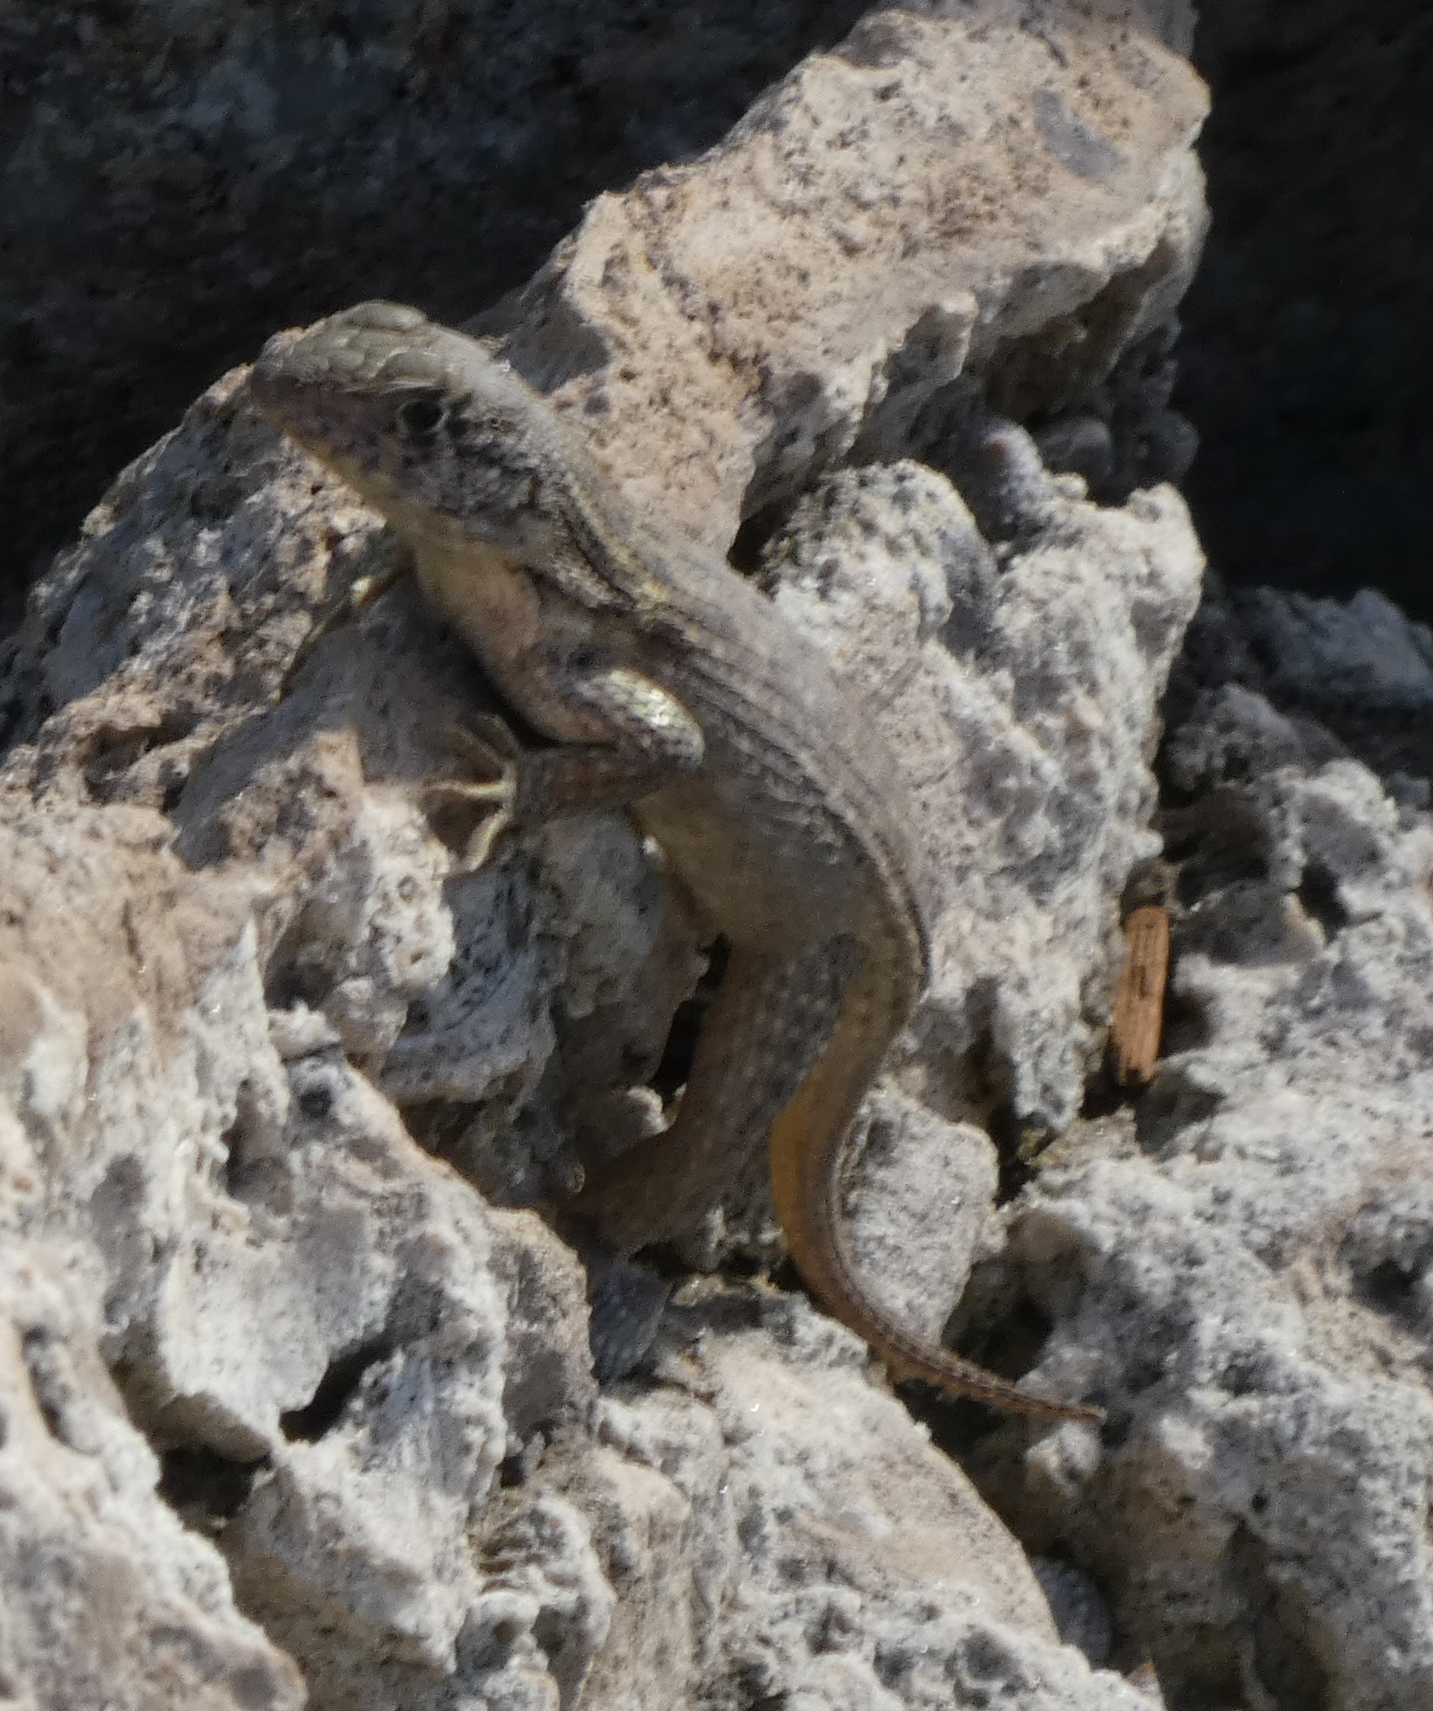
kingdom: Animalia
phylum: Chordata
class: Squamata
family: Leiocephalidae
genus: Leiocephalus
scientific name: Leiocephalus carinatus
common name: Northern curly-tailed lizard
